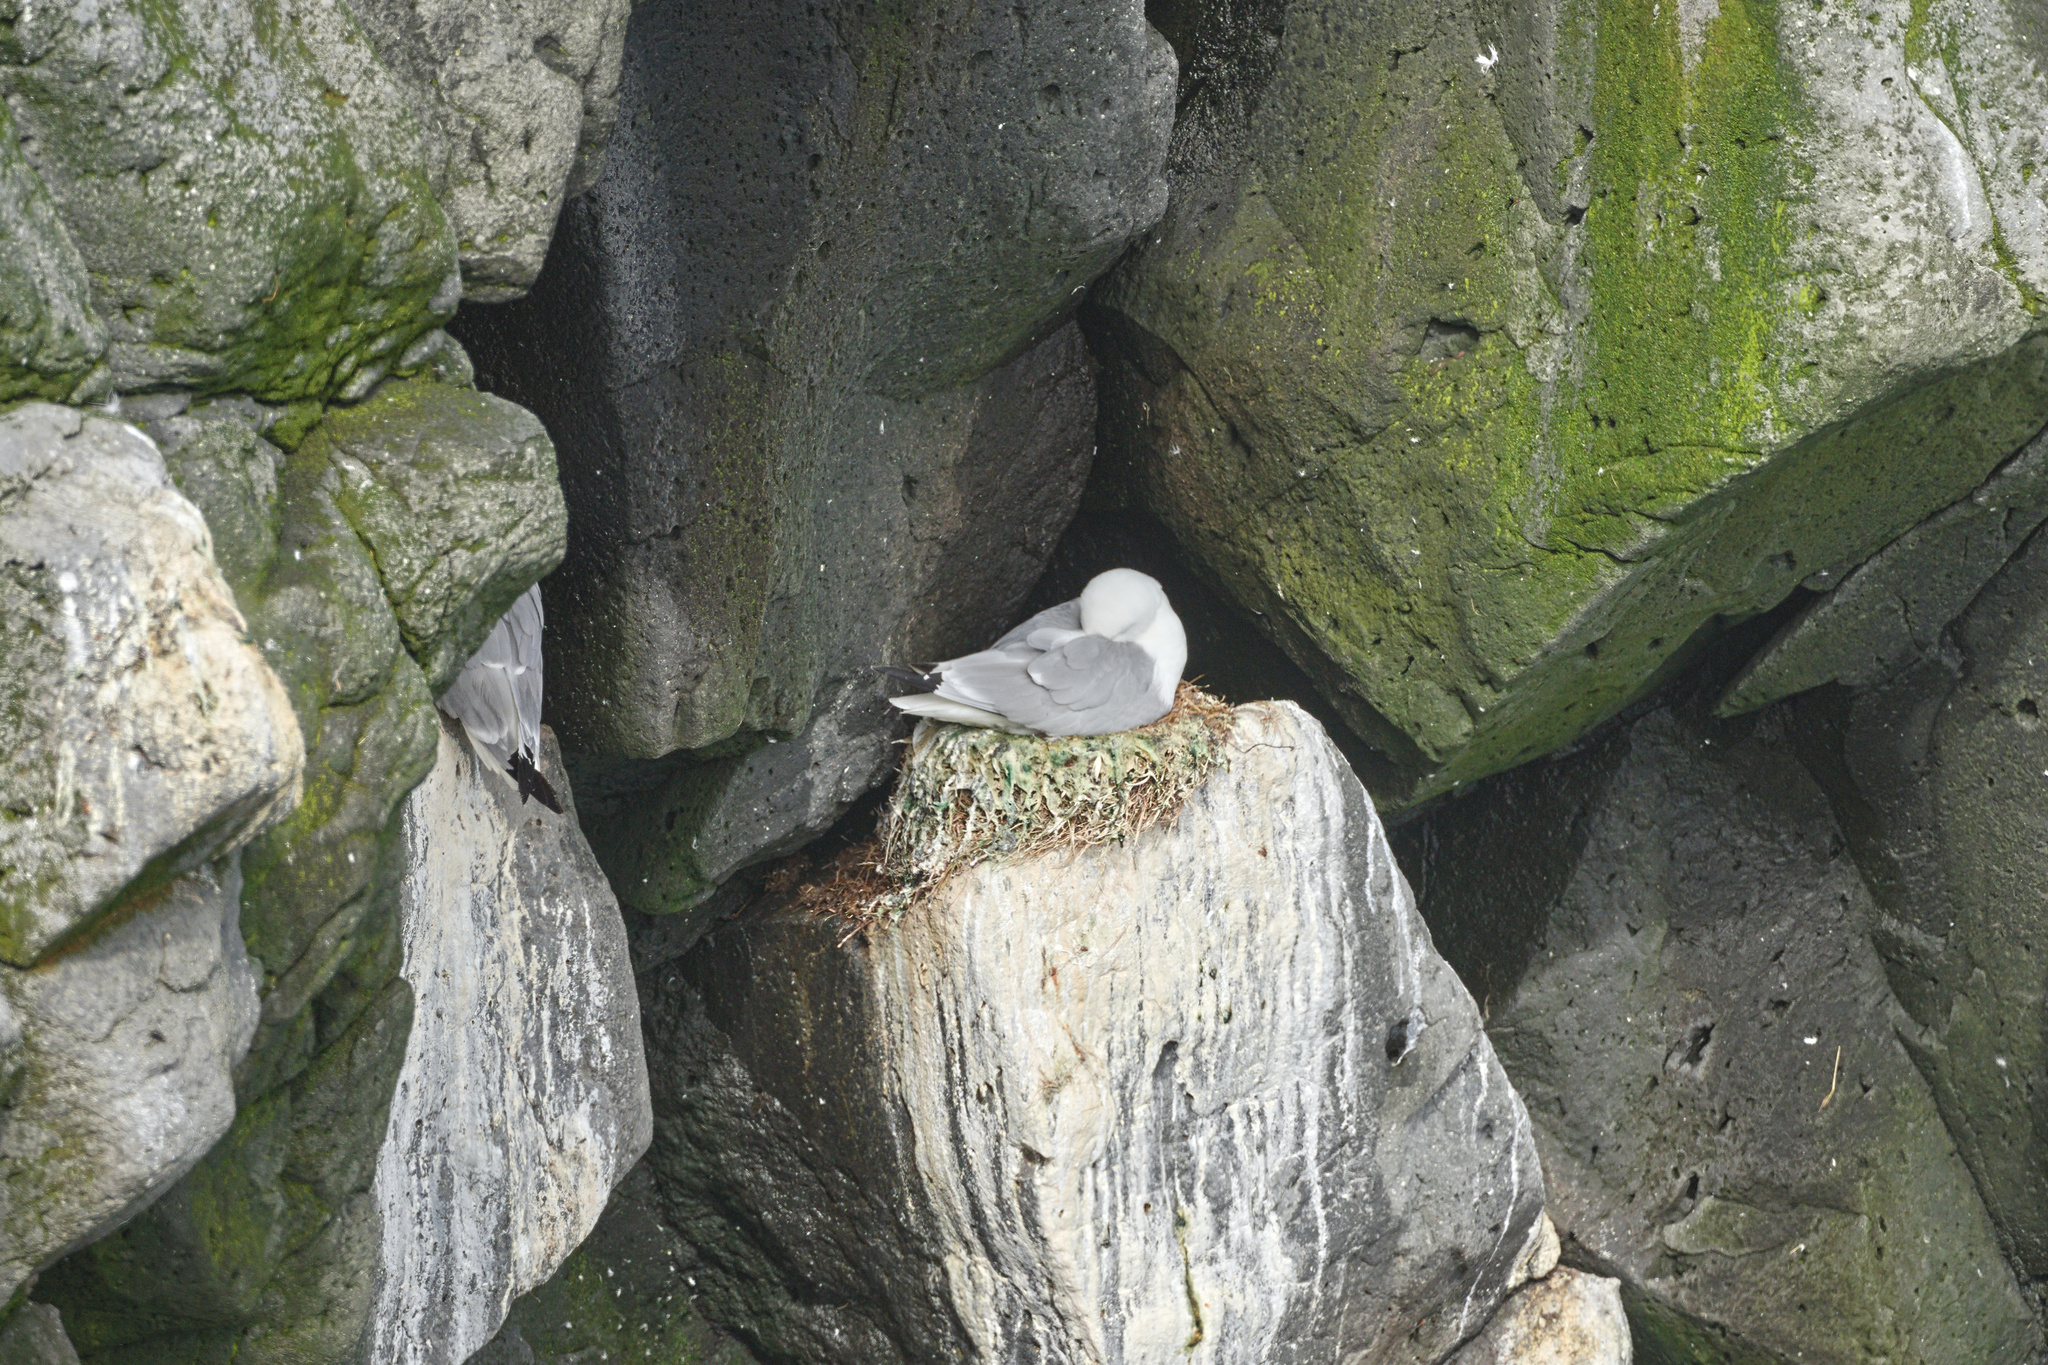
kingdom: Animalia
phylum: Chordata
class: Aves
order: Charadriiformes
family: Laridae
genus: Rissa
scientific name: Rissa tridactyla
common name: Black-legged kittiwake
